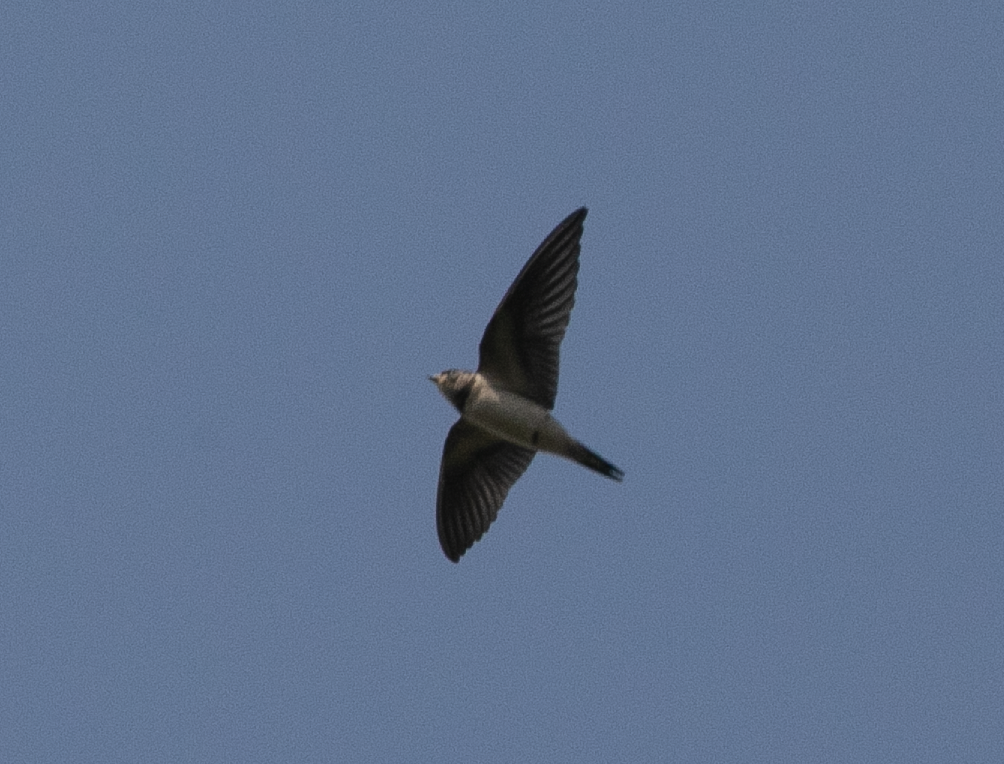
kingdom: Animalia
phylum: Chordata
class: Aves
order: Passeriformes
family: Hirundinidae
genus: Hirundo
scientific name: Hirundo rustica
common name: Barn swallow
